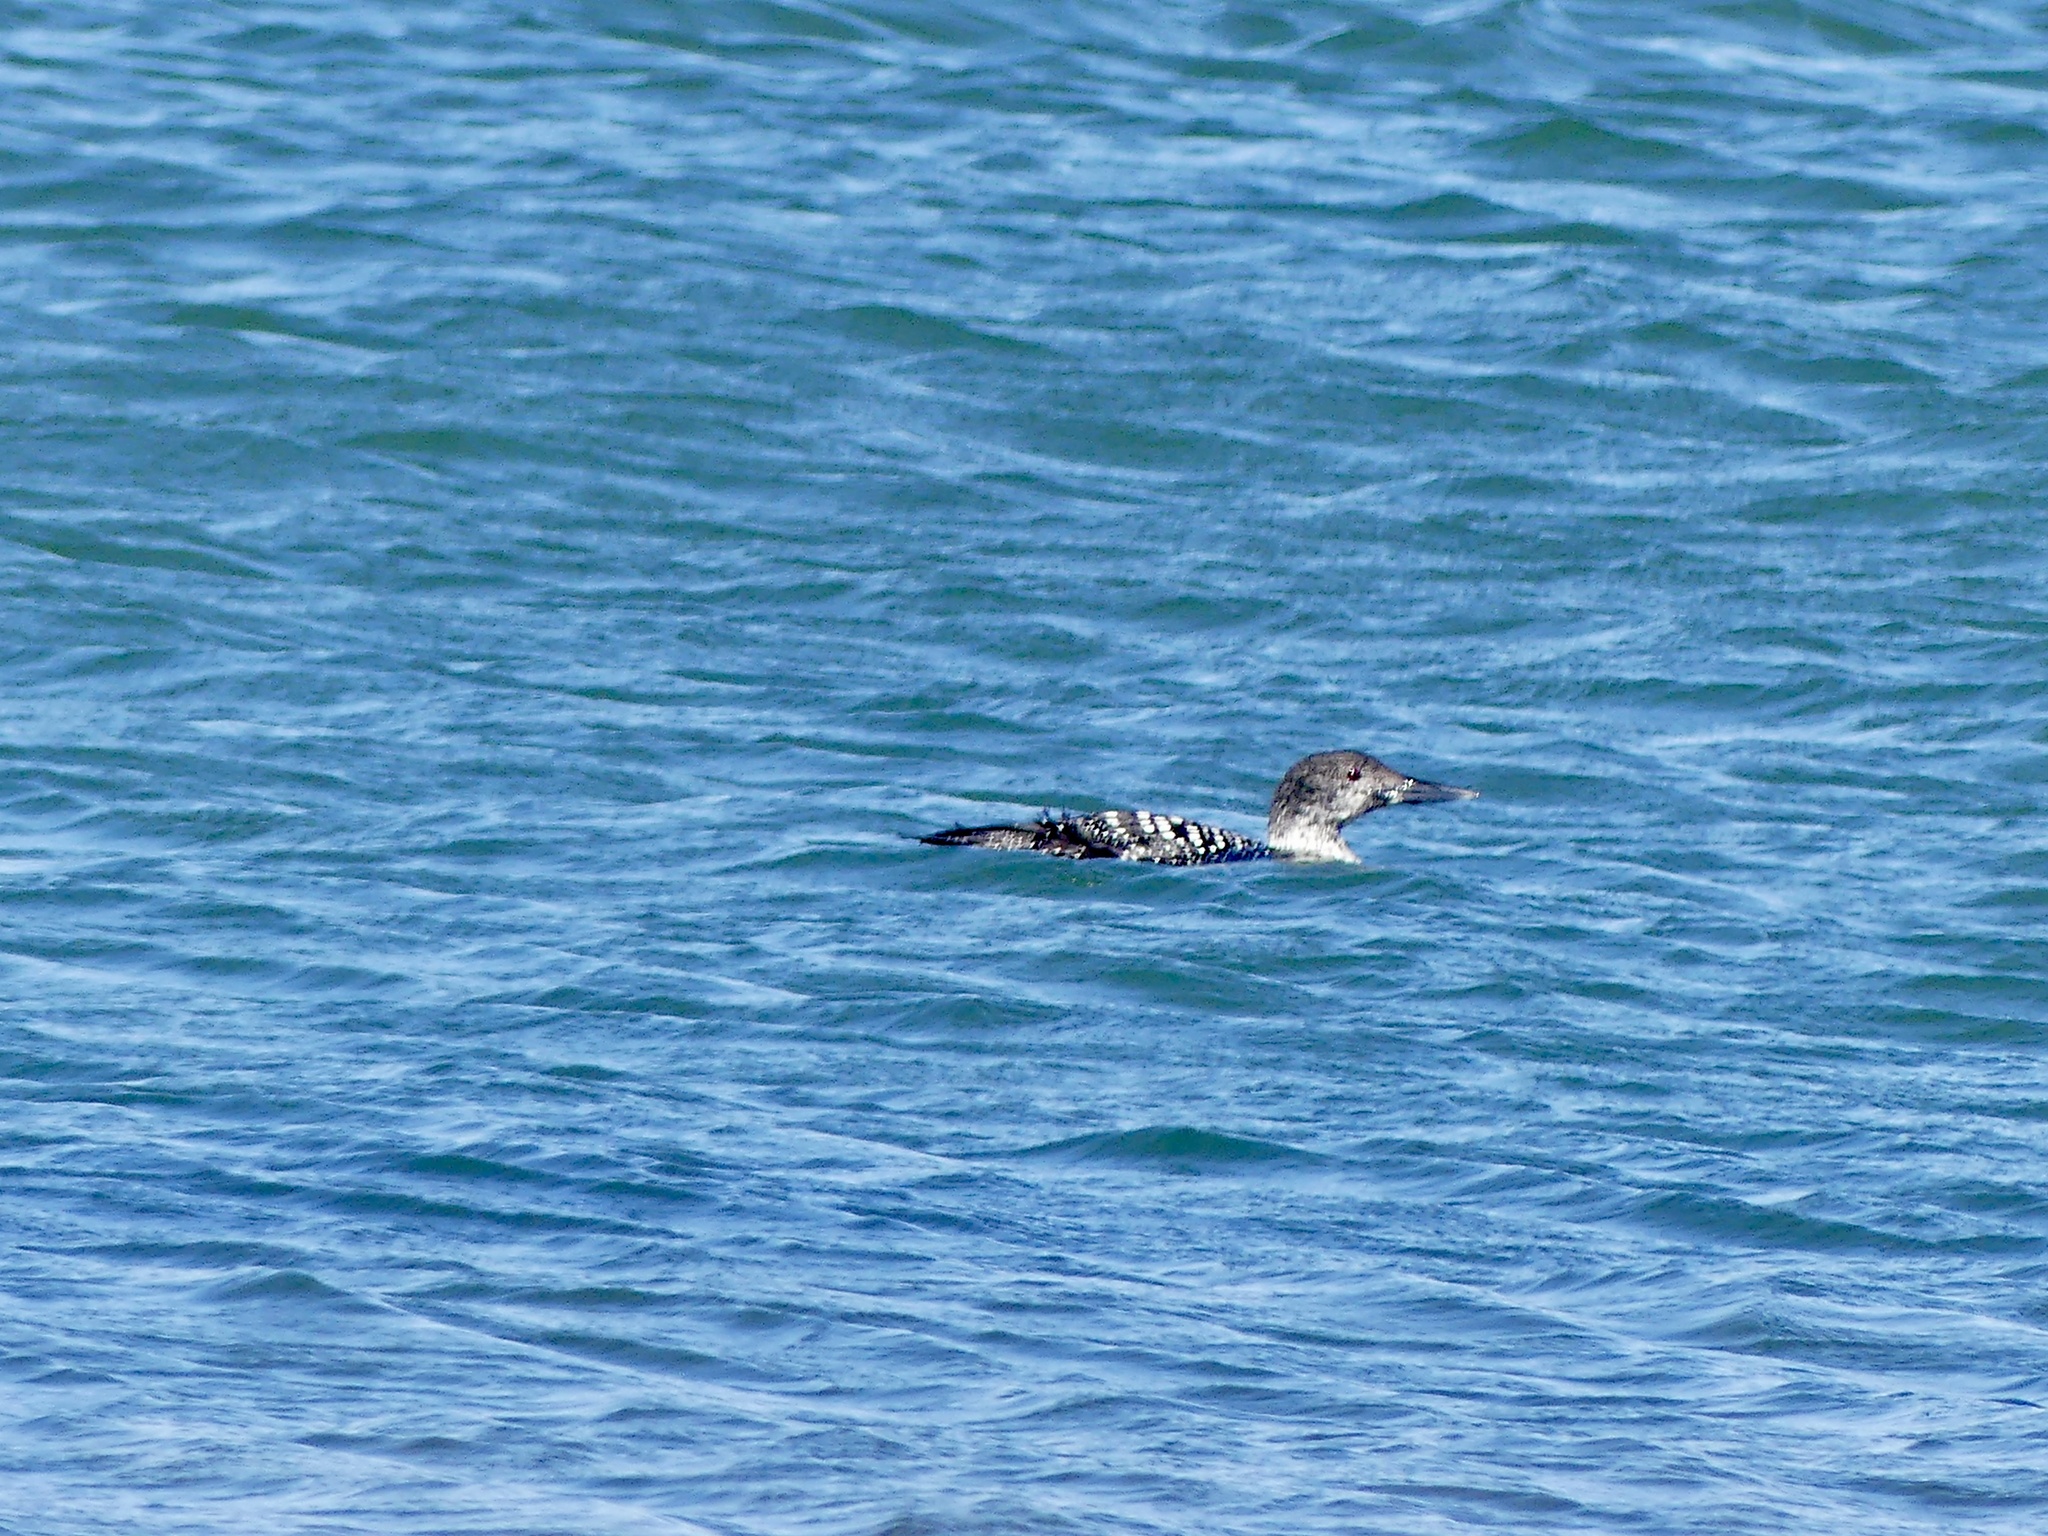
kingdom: Animalia
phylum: Chordata
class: Aves
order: Gaviiformes
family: Gaviidae
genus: Gavia
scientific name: Gavia immer
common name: Common loon
